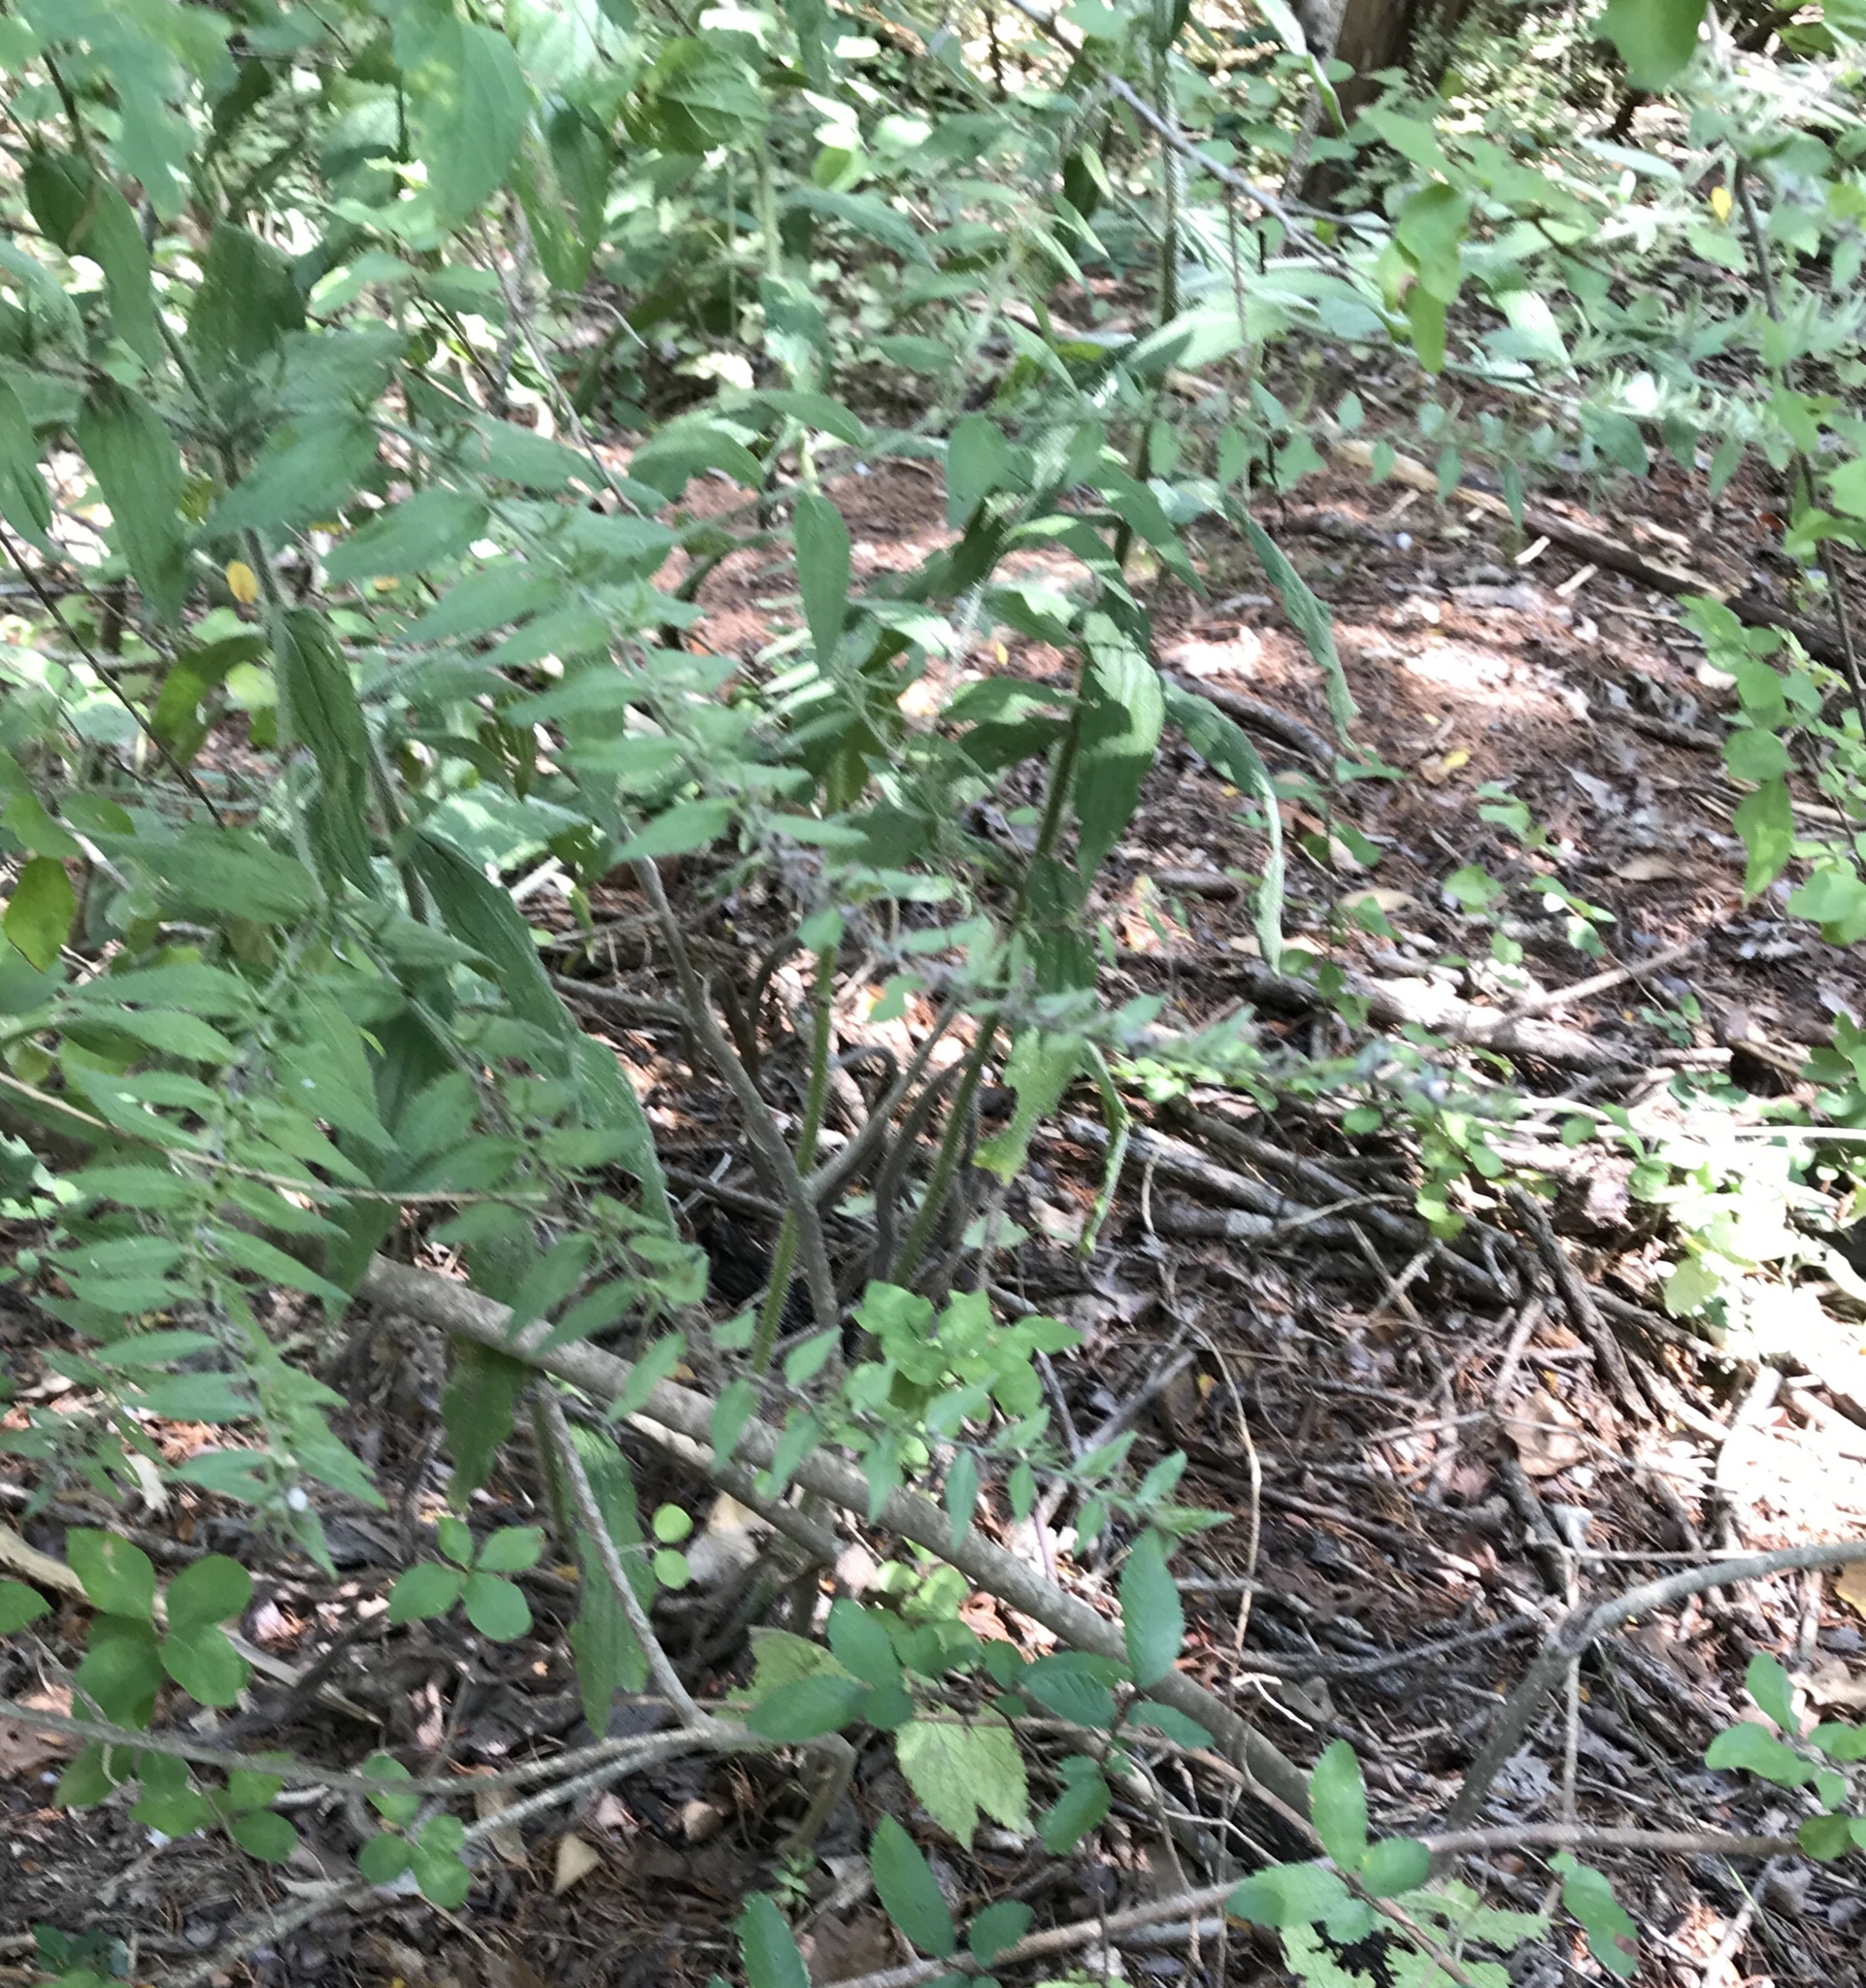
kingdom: Plantae
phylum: Tracheophyta
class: Magnoliopsida
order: Boraginales
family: Boraginaceae
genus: Lithospermum
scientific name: Lithospermum caroliniense
